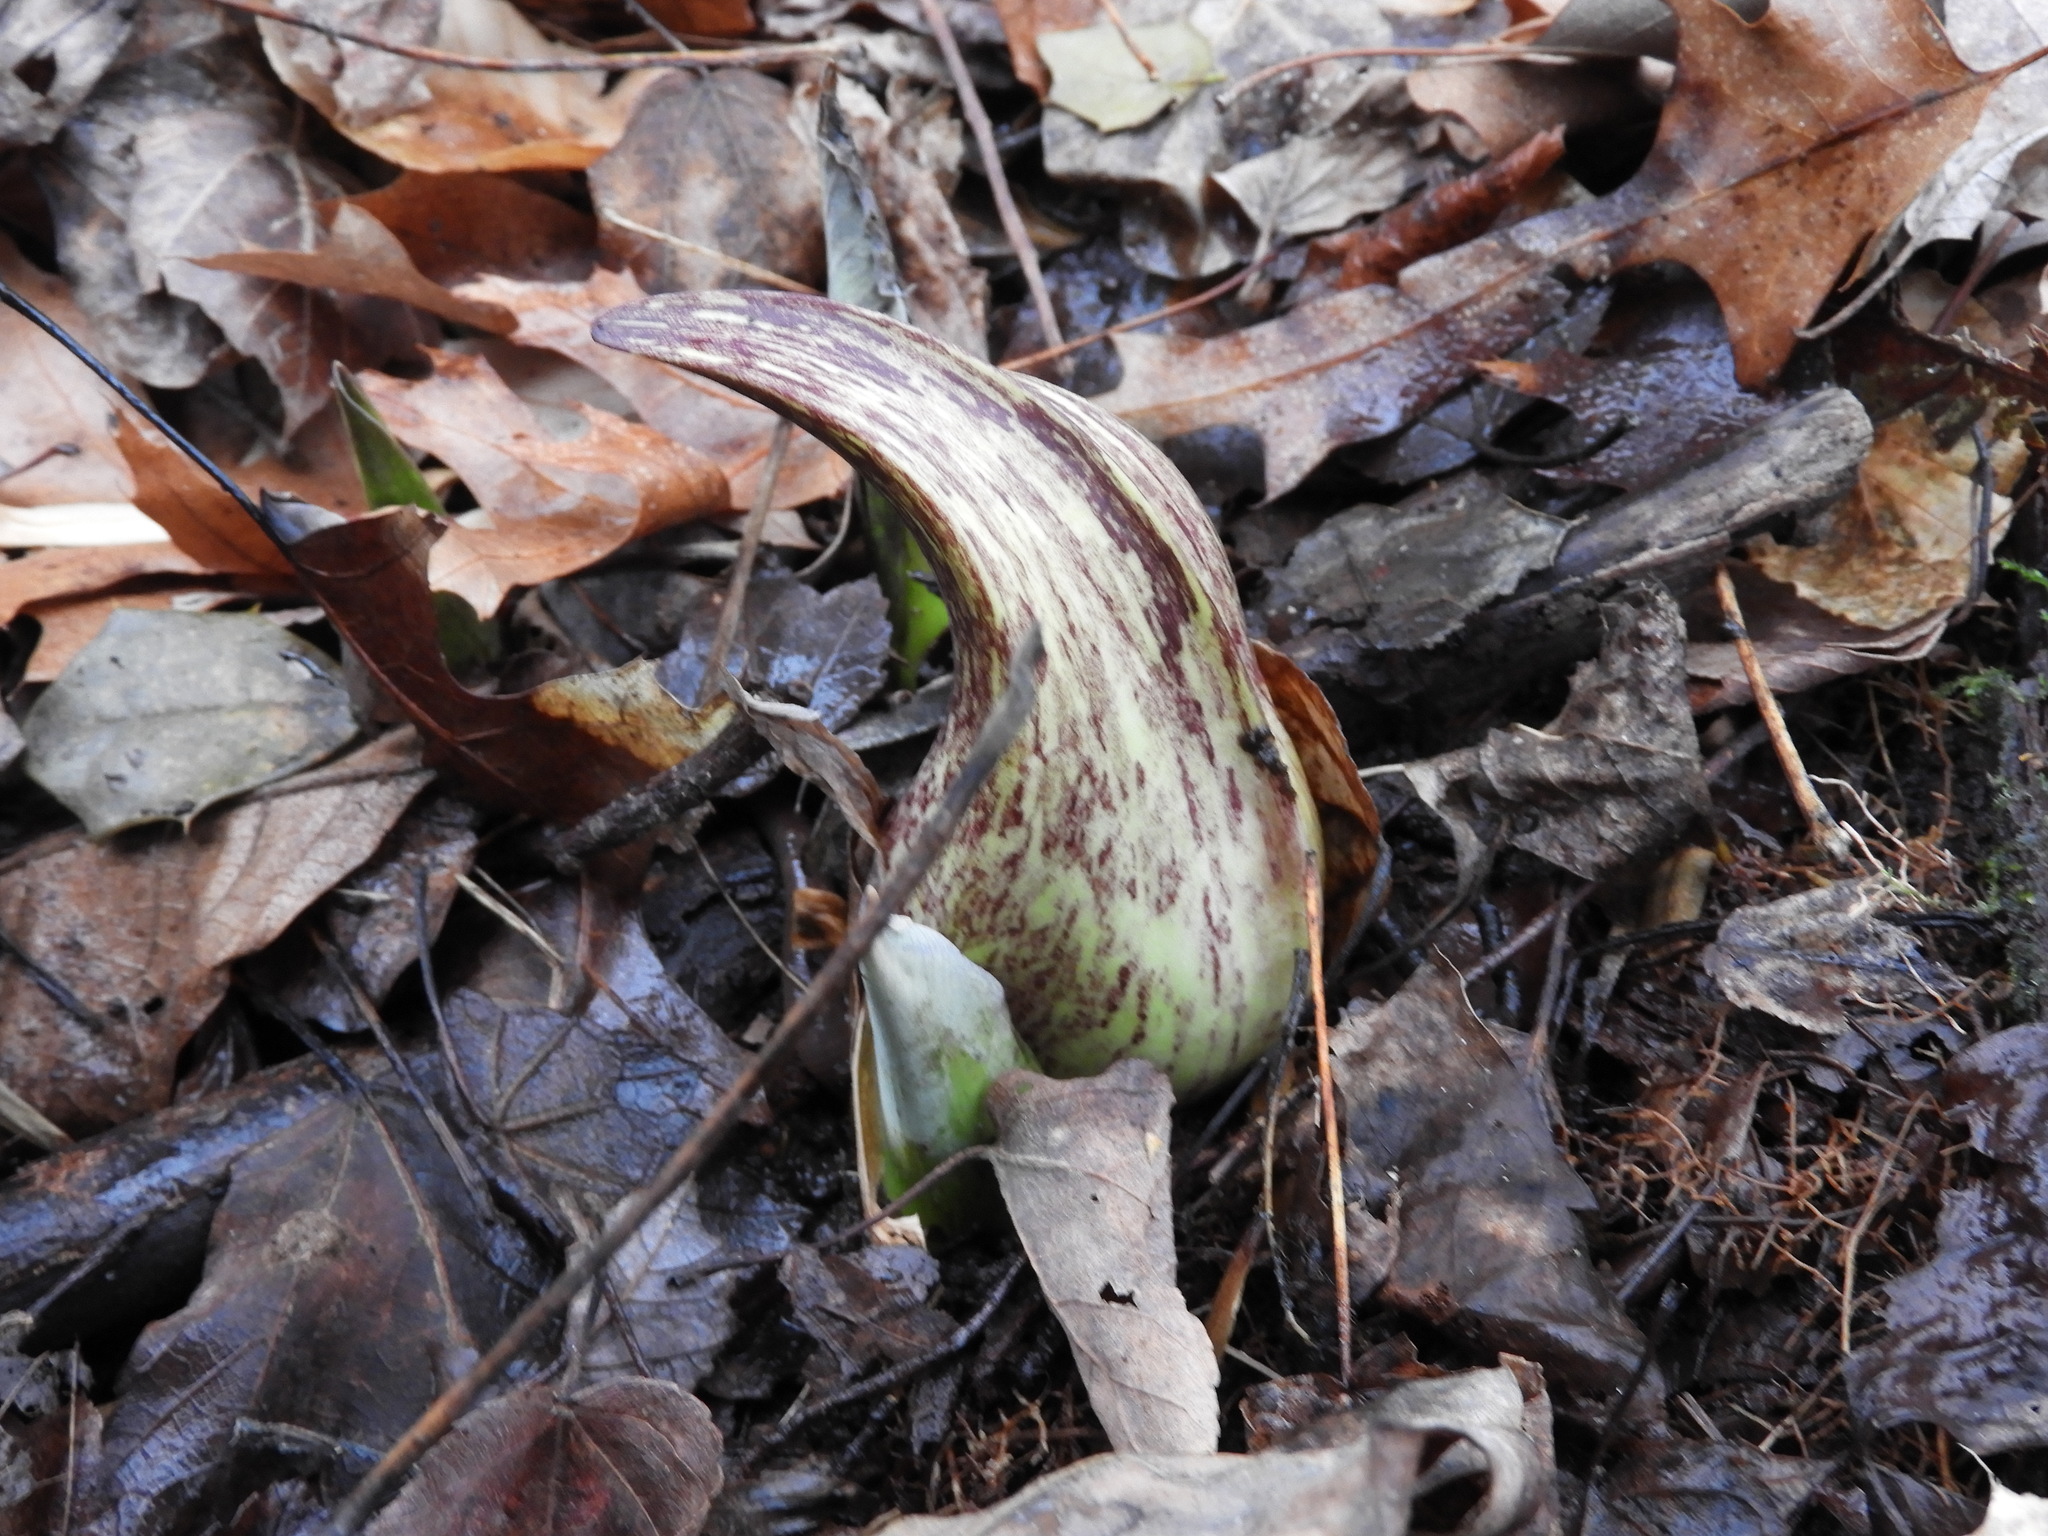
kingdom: Plantae
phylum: Tracheophyta
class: Liliopsida
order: Alismatales
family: Araceae
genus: Symplocarpus
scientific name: Symplocarpus foetidus
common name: Eastern skunk cabbage
